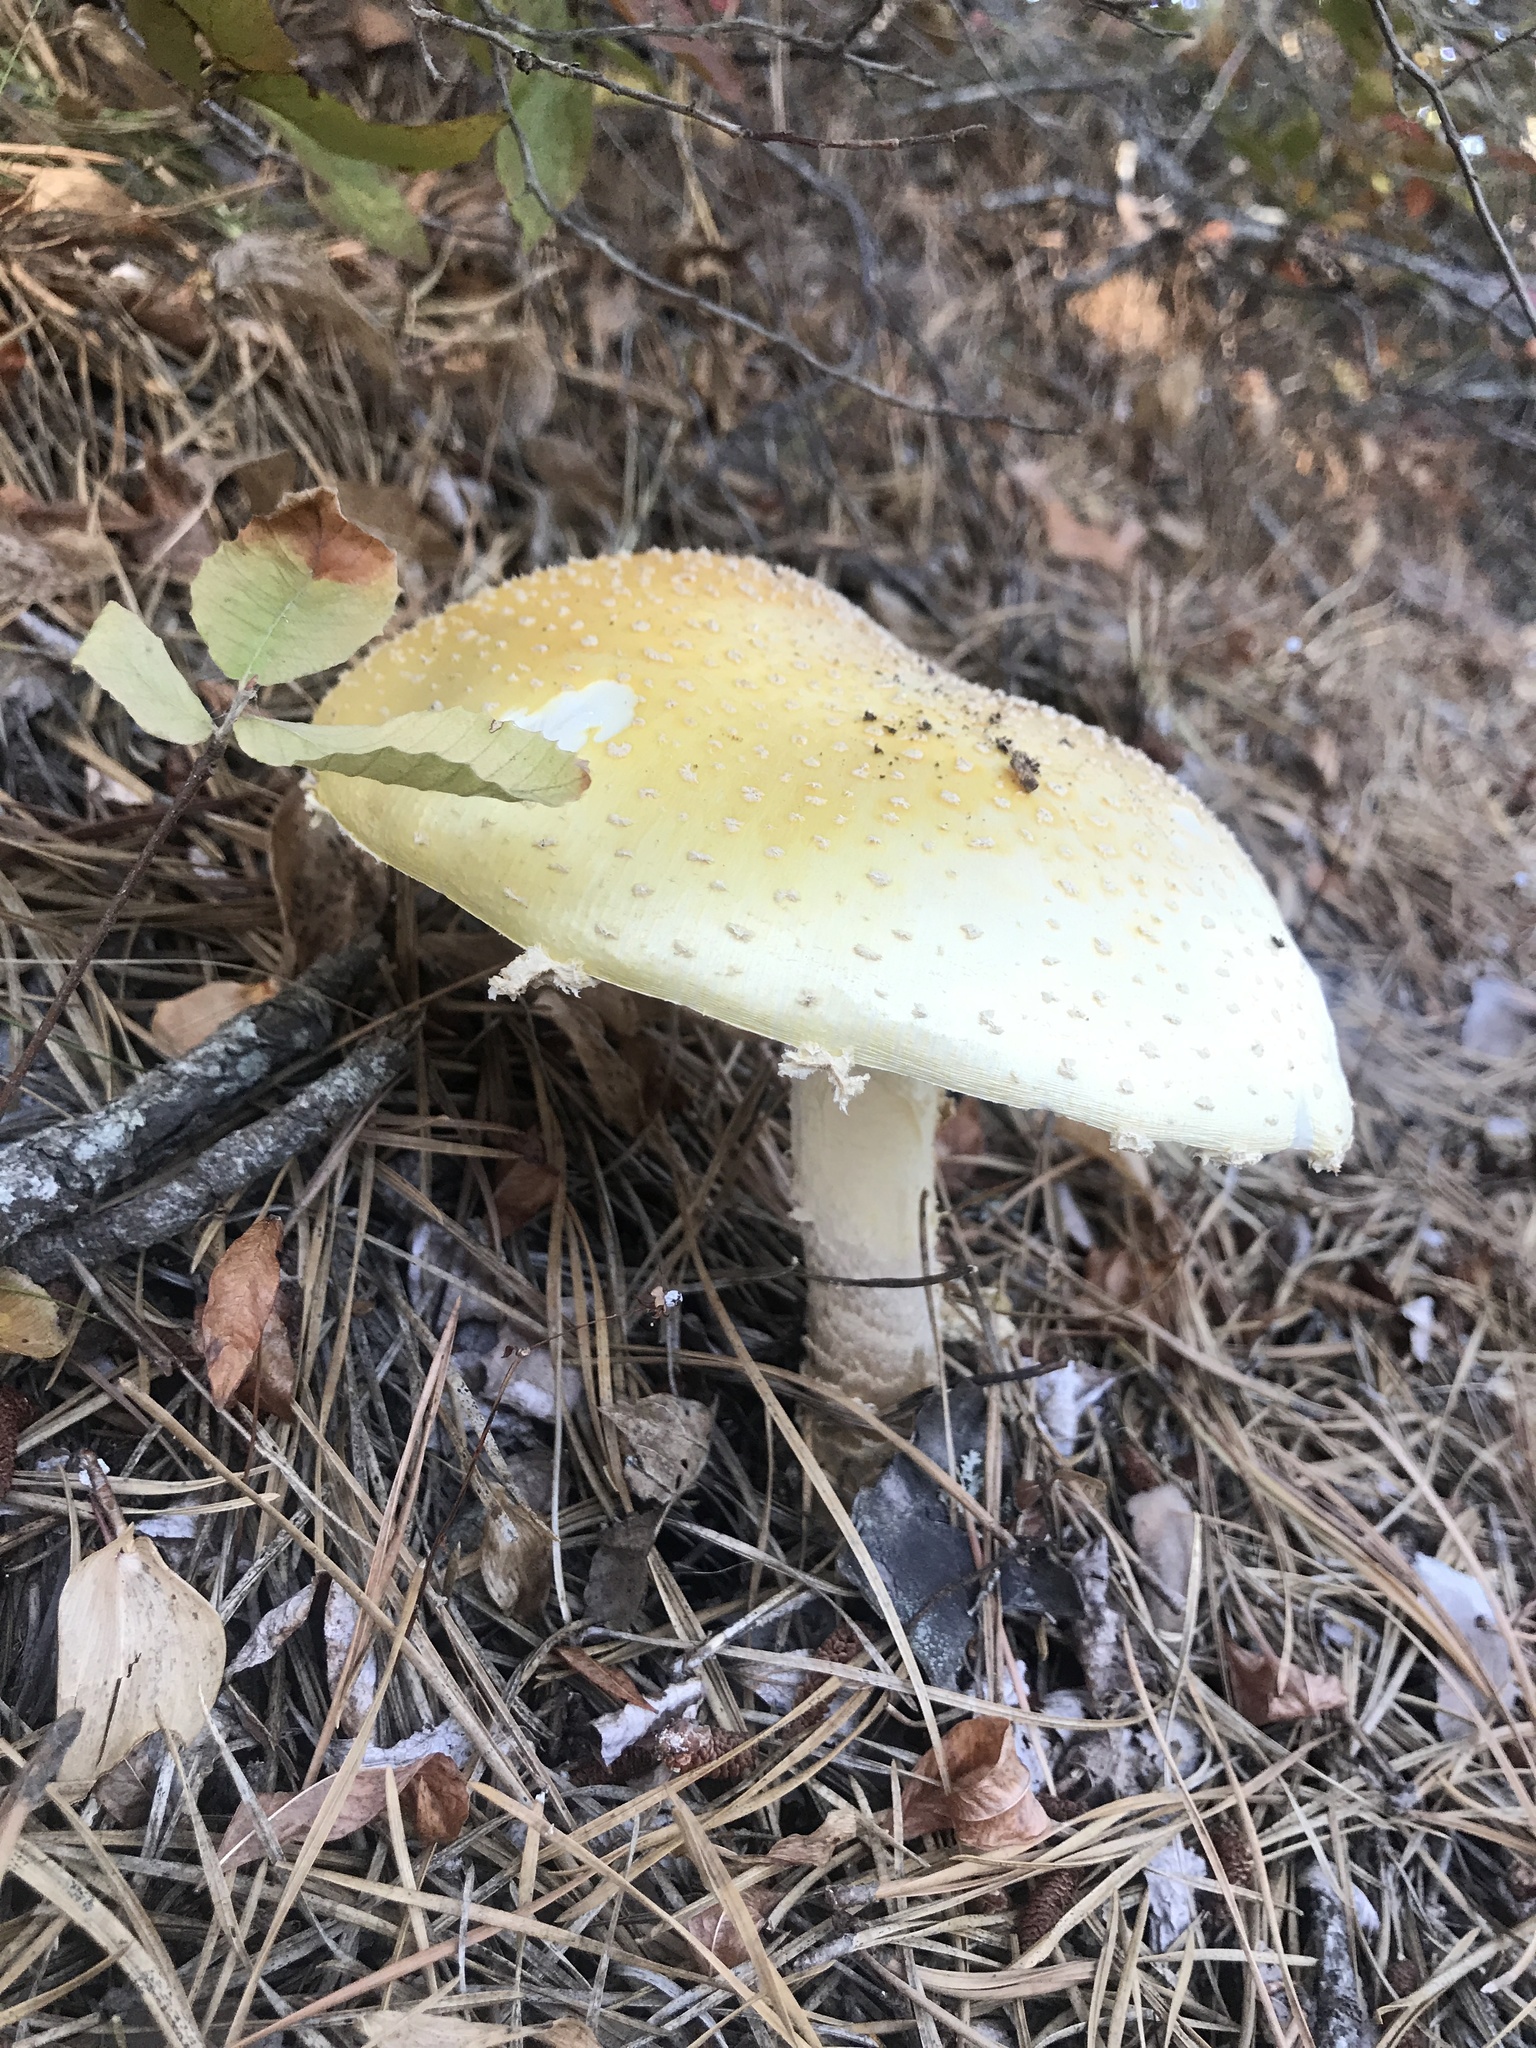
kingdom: Fungi
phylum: Basidiomycota
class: Agaricomycetes
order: Agaricales
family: Amanitaceae
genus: Amanita
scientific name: Amanita muscaria
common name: Fly agaric
